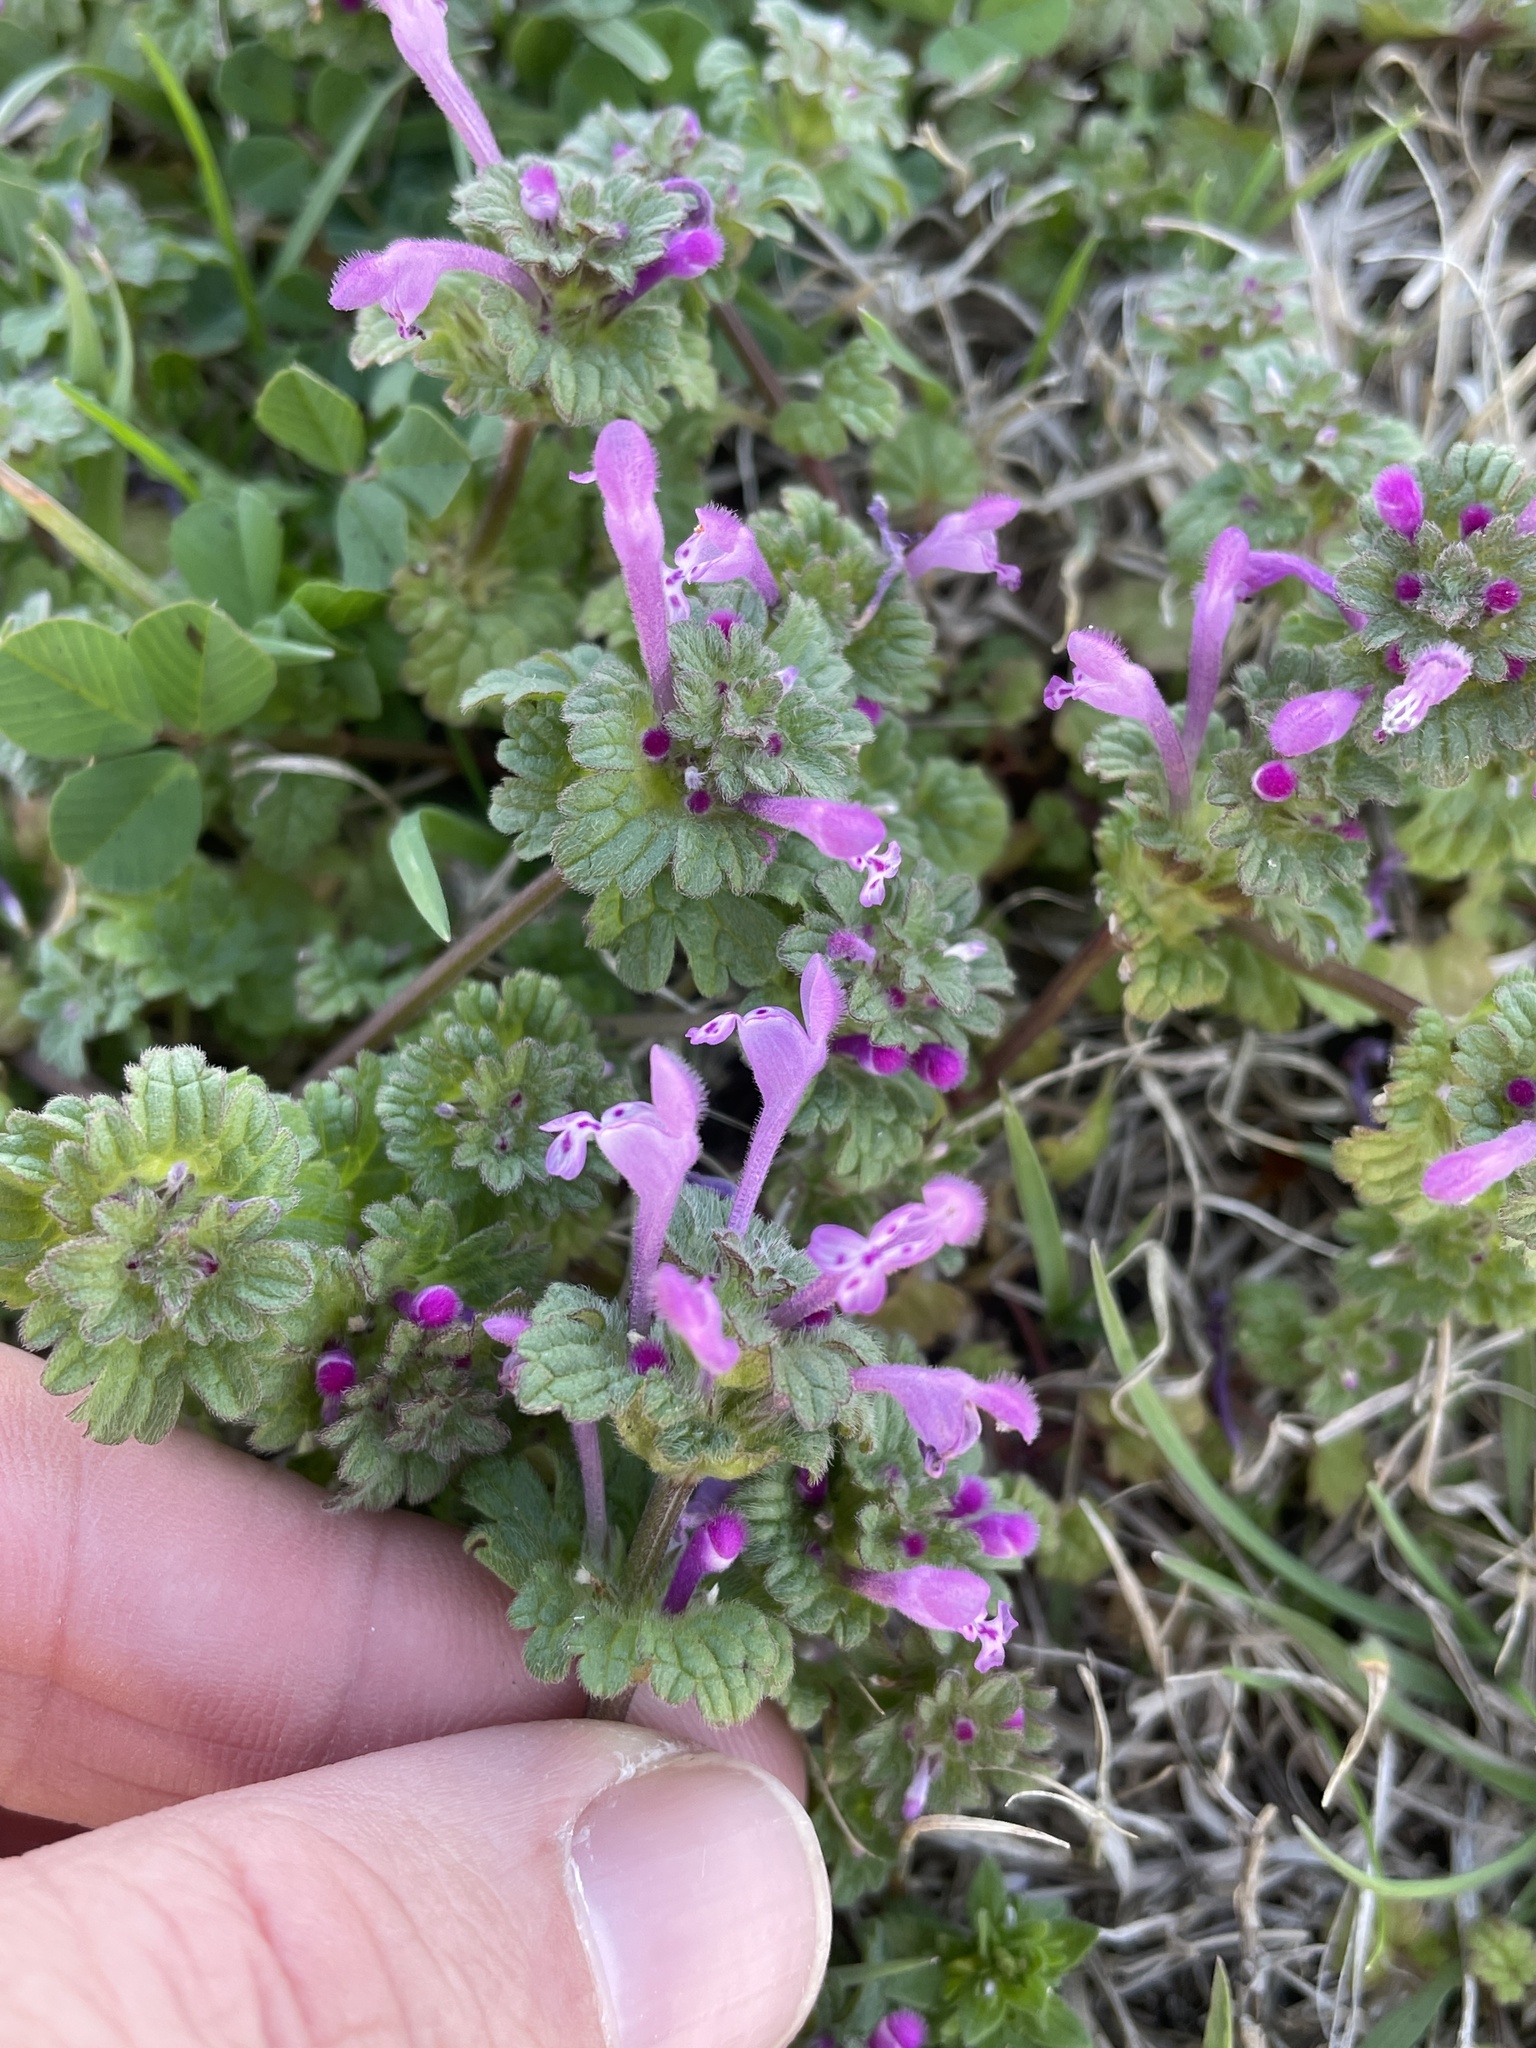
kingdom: Plantae
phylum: Tracheophyta
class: Magnoliopsida
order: Lamiales
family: Lamiaceae
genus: Lamium
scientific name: Lamium amplexicaule
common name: Henbit dead-nettle
